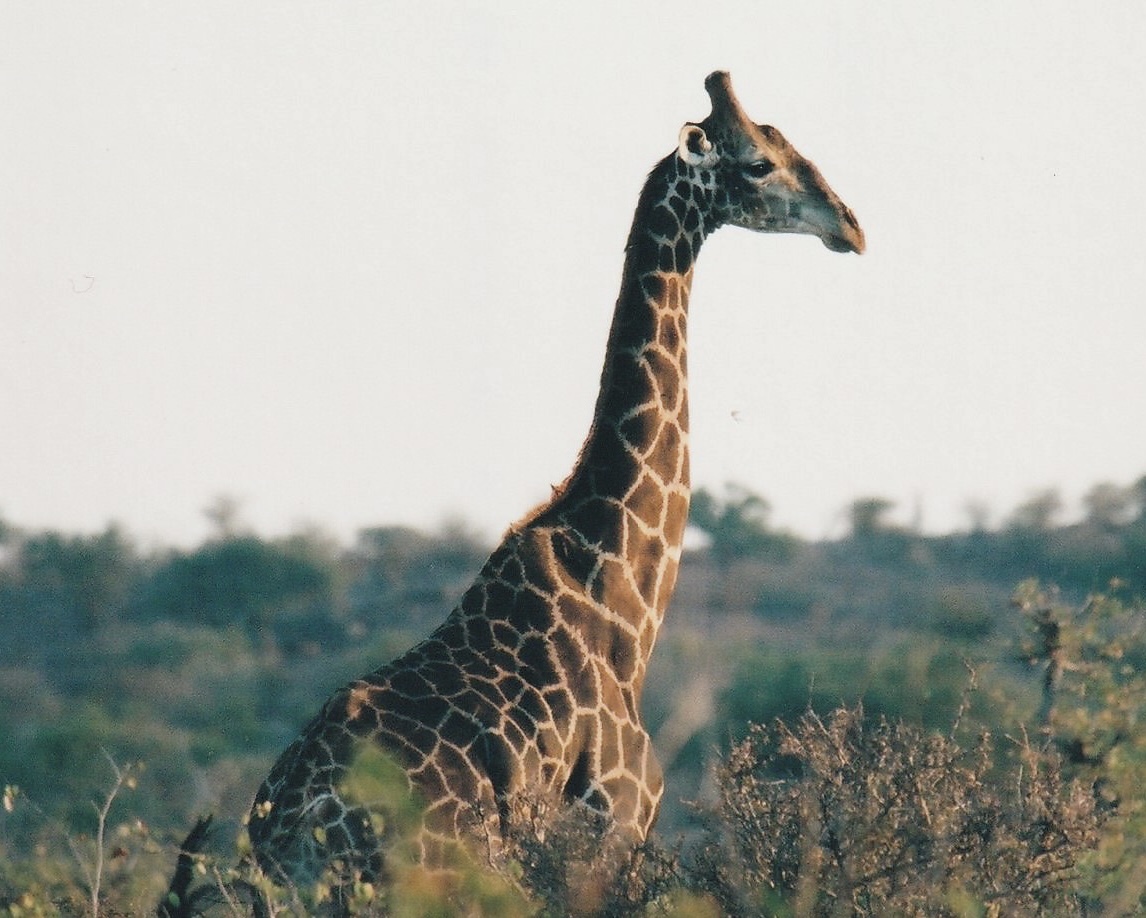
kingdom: Animalia
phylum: Chordata
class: Mammalia
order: Artiodactyla
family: Giraffidae
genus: Giraffa
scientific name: Giraffa giraffa
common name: Southern giraffe
